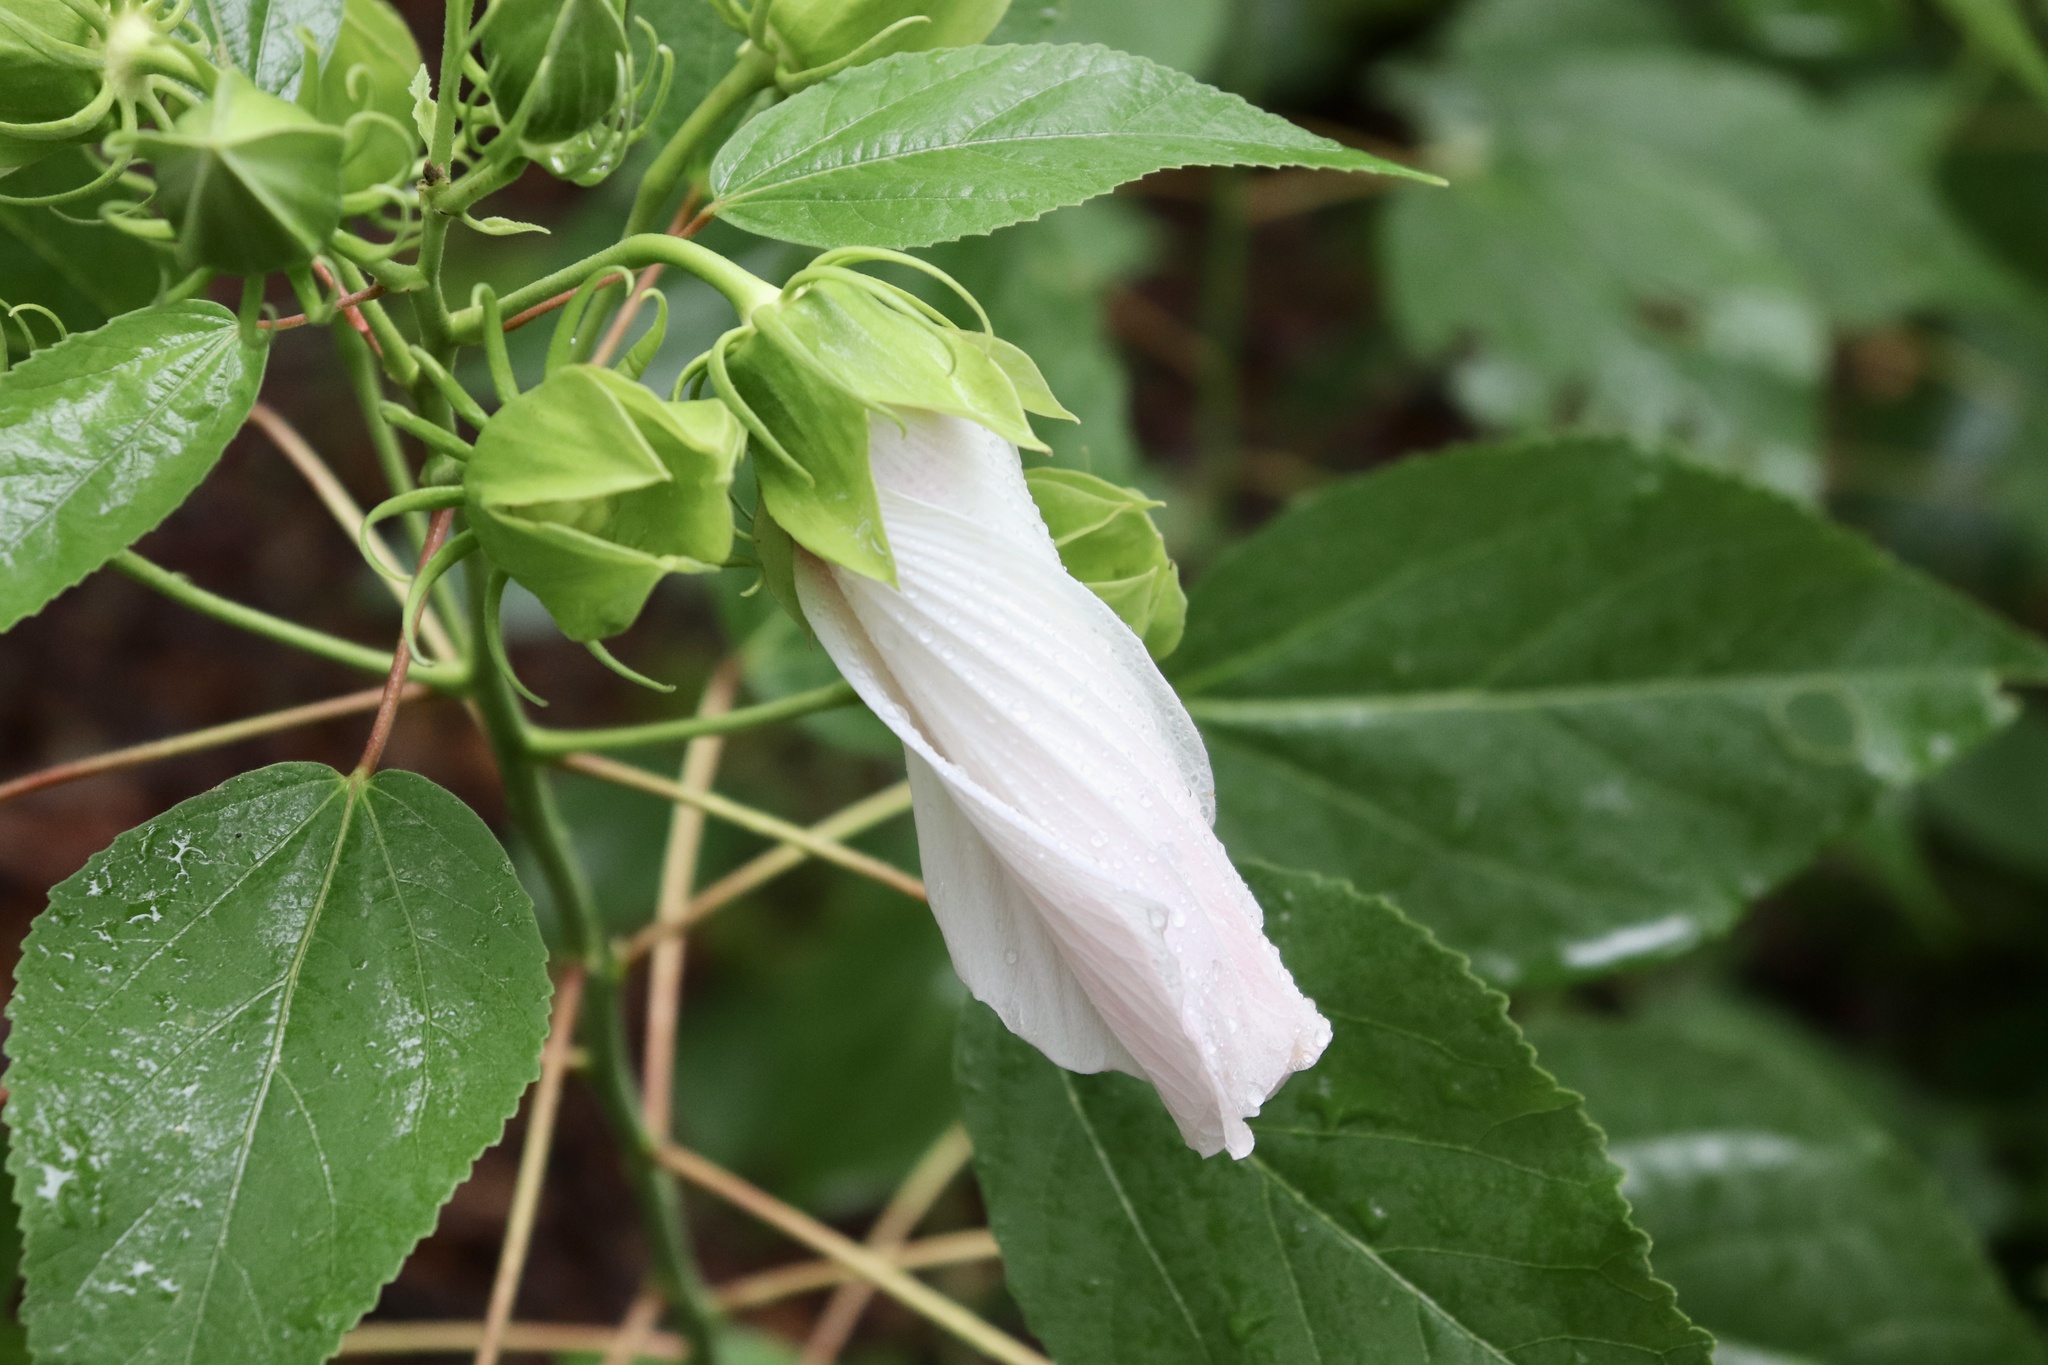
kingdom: Plantae
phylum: Tracheophyta
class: Magnoliopsida
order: Malvales
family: Malvaceae
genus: Hibiscus
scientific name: Hibiscus moscheutos
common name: Common rose-mallow
